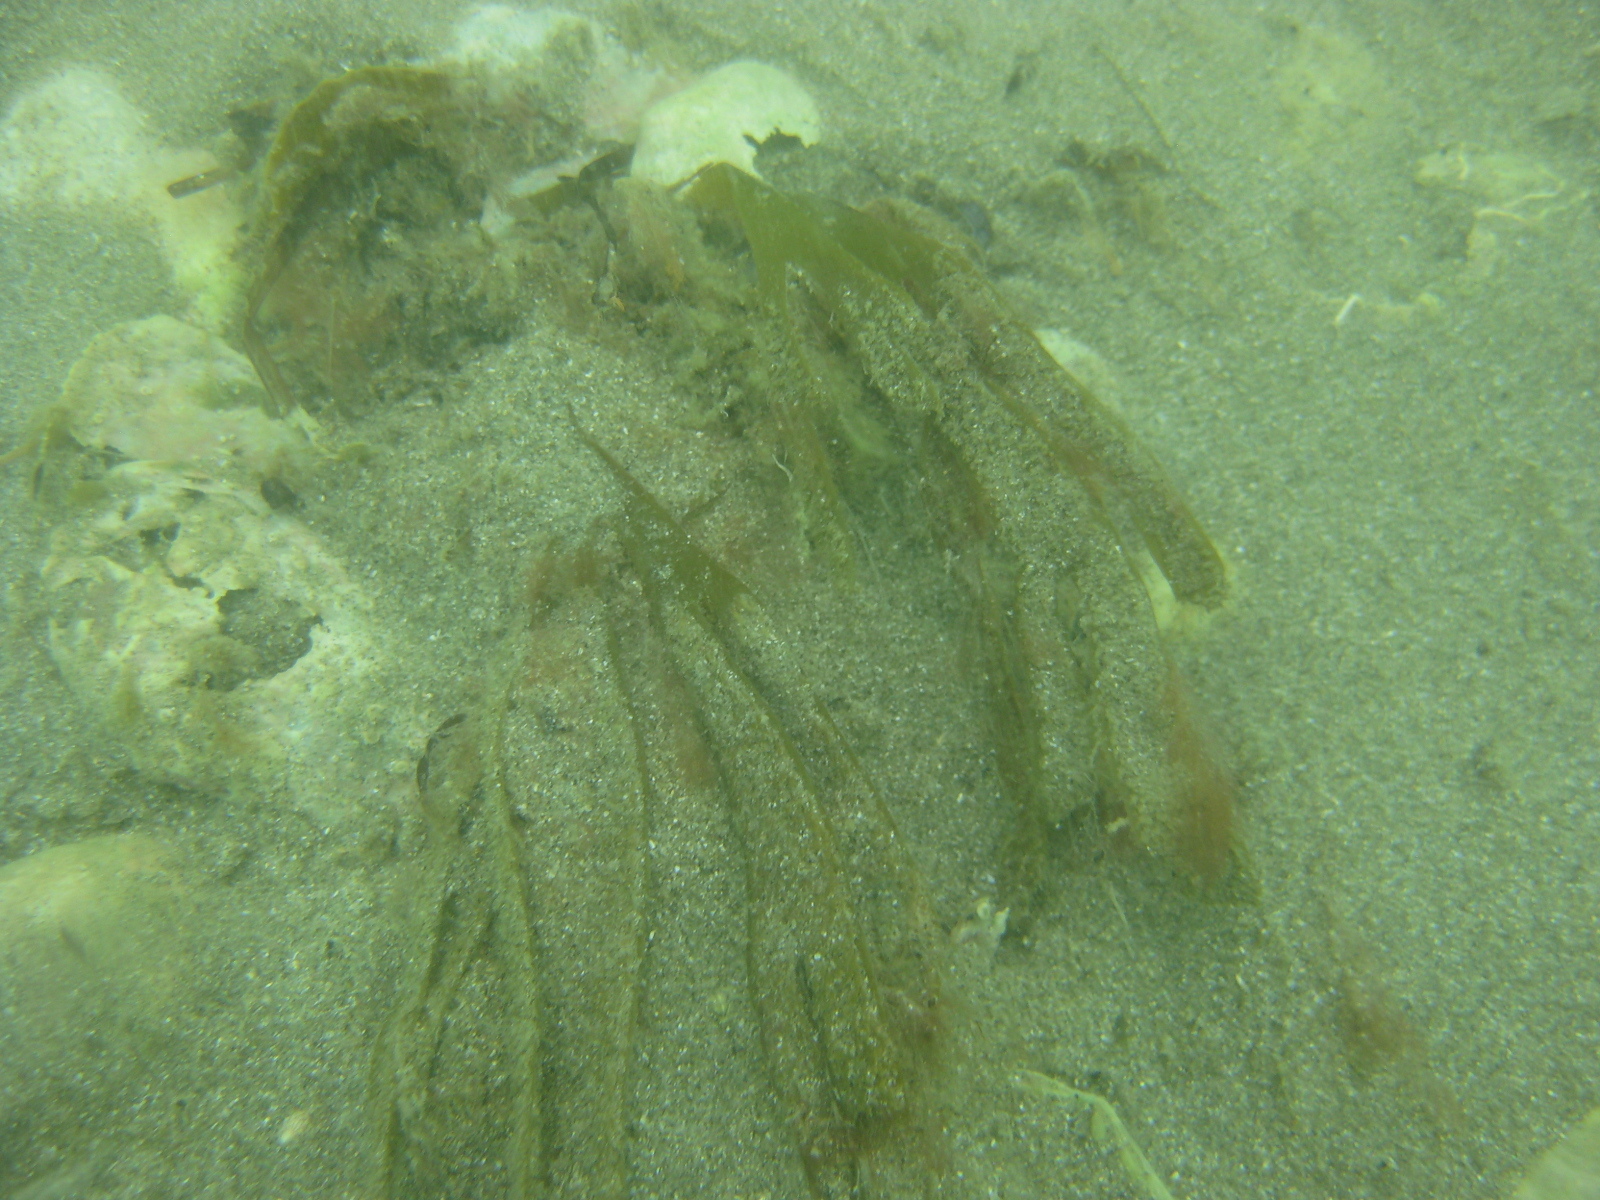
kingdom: Chromista
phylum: Ochrophyta
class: Phaeophyceae
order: Dictyotales
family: Dictyotaceae
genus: Dictyota
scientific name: Dictyota kunthii
